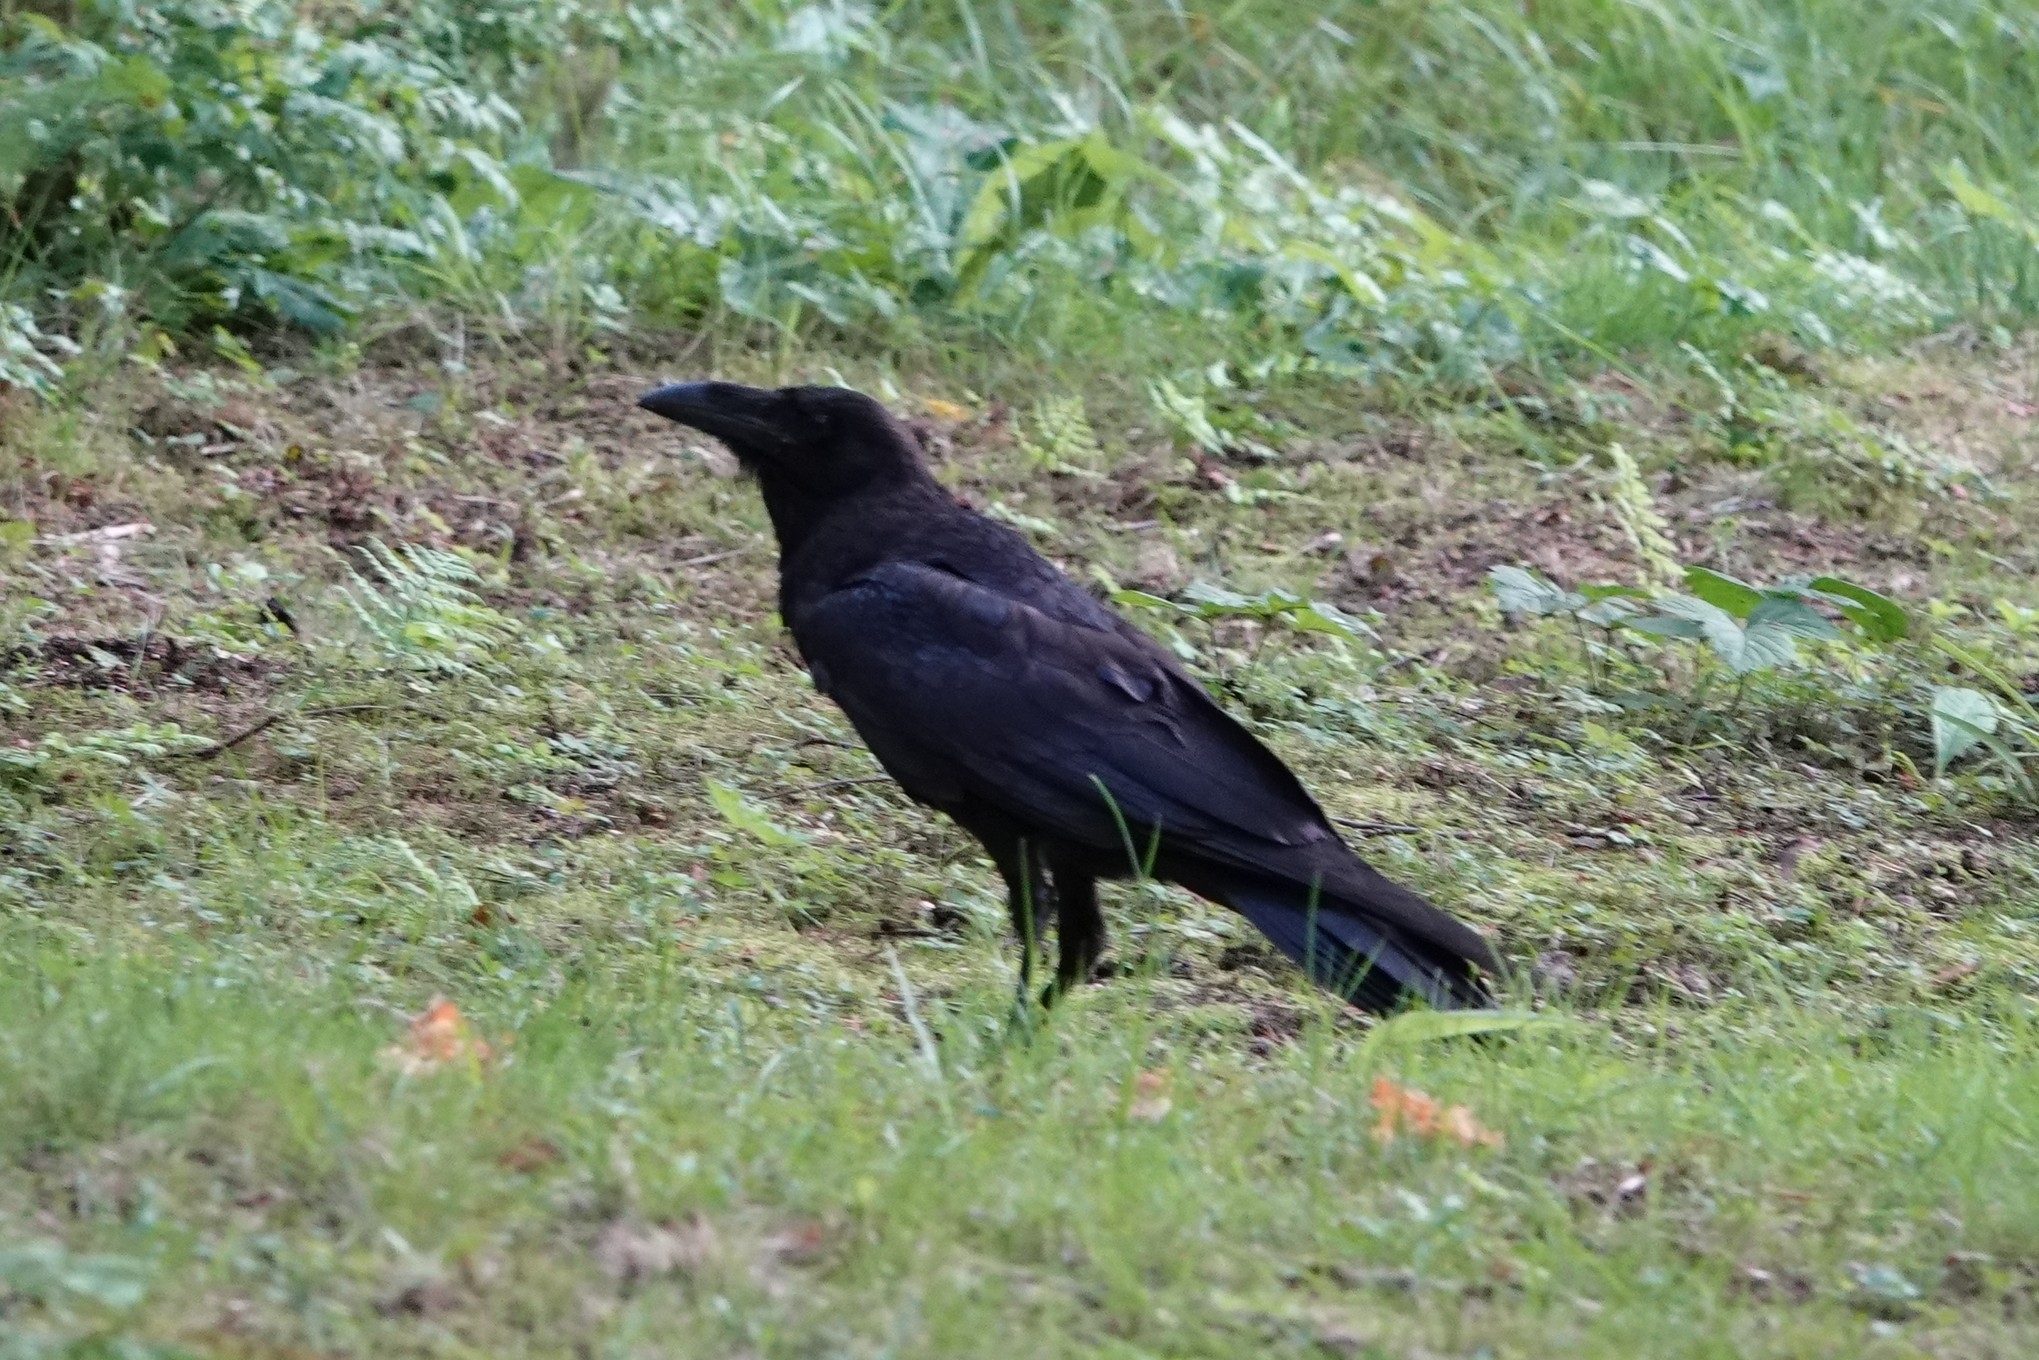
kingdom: Animalia
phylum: Chordata
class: Aves
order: Passeriformes
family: Corvidae
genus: Corvus
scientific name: Corvus corax
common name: Common raven
